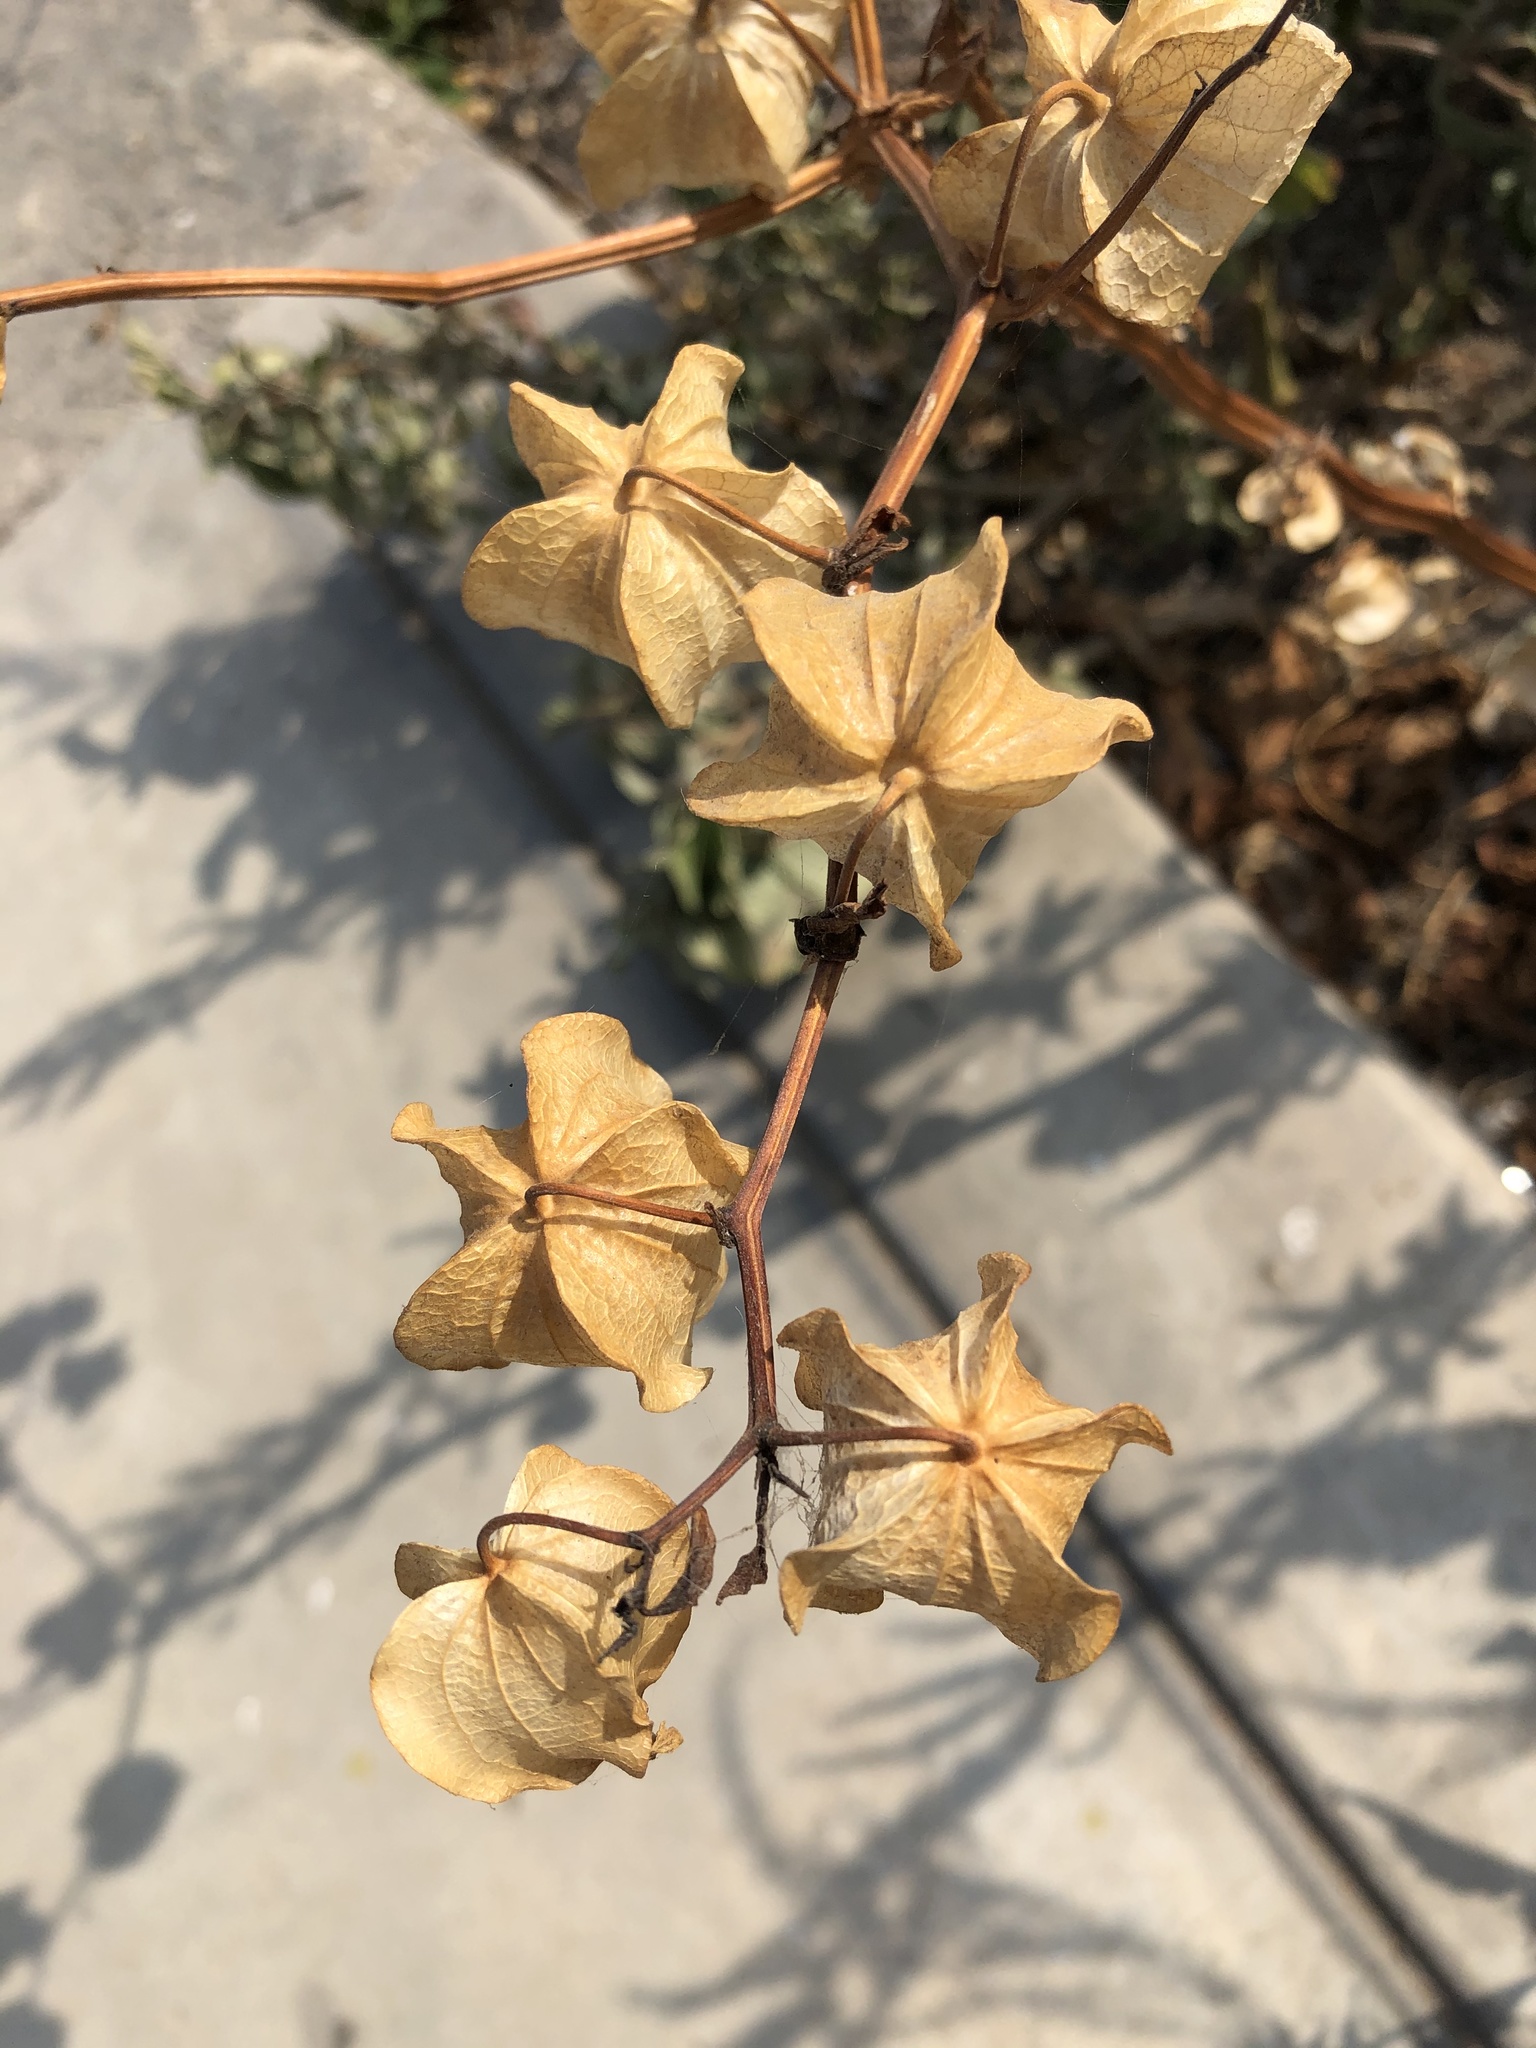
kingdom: Plantae
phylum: Tracheophyta
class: Magnoliopsida
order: Solanales
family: Solanaceae
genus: Nicandra
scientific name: Nicandra physalodes
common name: Apple-of-peru
